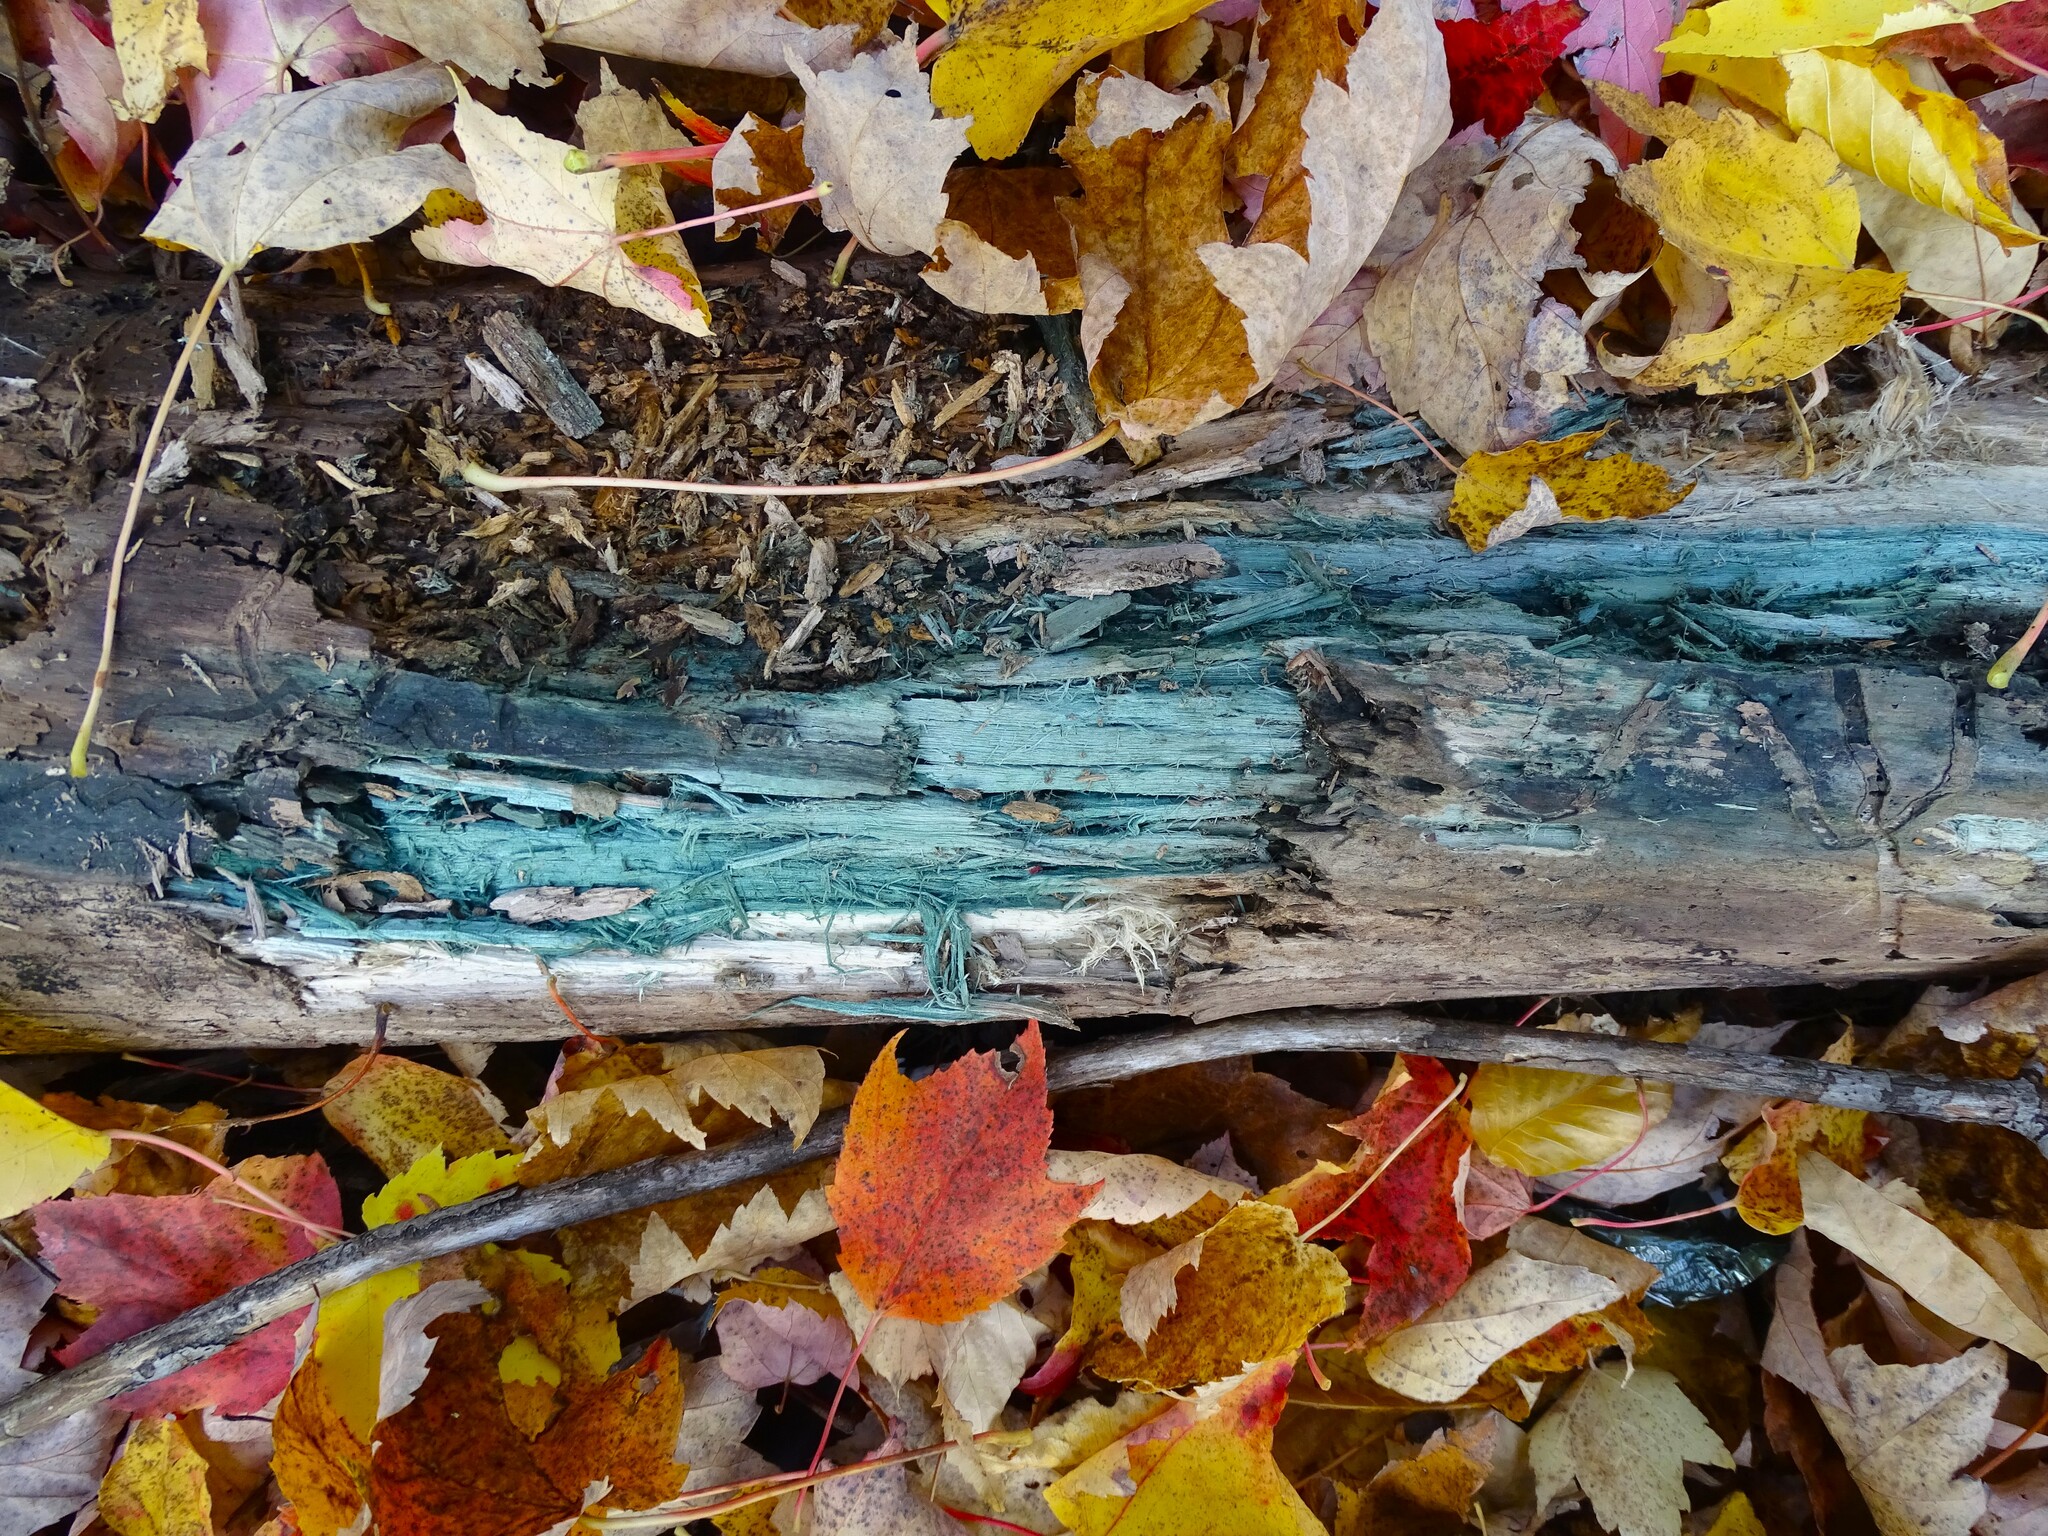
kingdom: Fungi
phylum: Ascomycota
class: Leotiomycetes
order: Helotiales
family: Chlorociboriaceae
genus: Chlorociboria
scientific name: Chlorociboria aeruginascens
